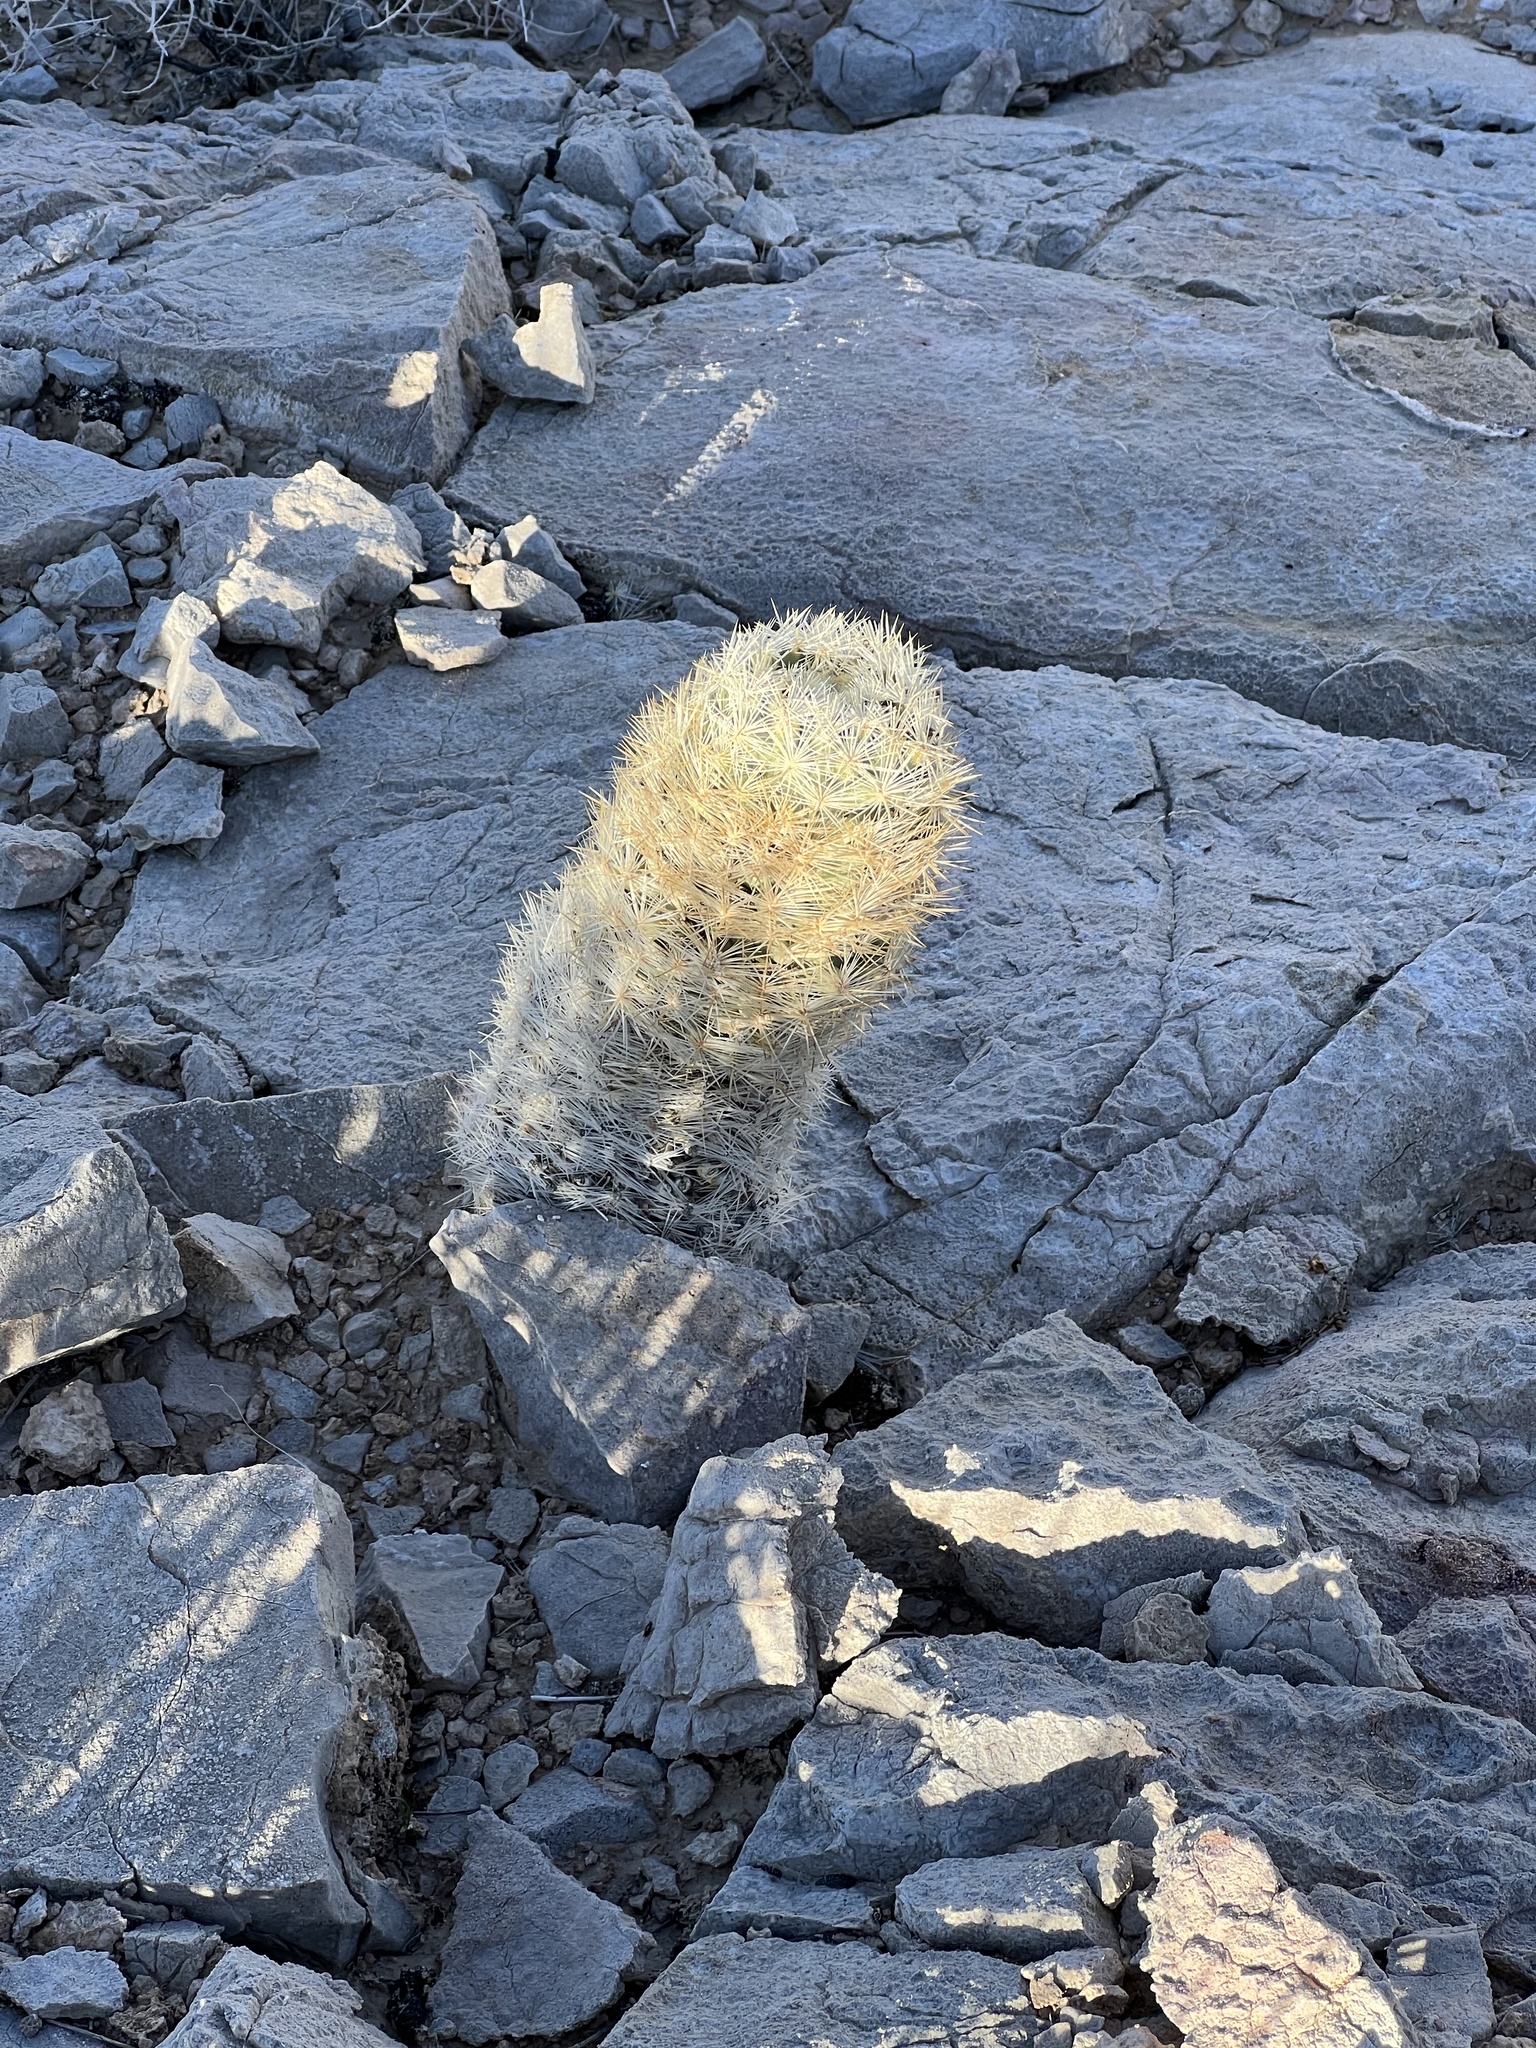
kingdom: Plantae
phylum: Tracheophyta
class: Magnoliopsida
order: Caryophyllales
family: Cactaceae
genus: Pelecyphora
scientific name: Pelecyphora dasyacantha
